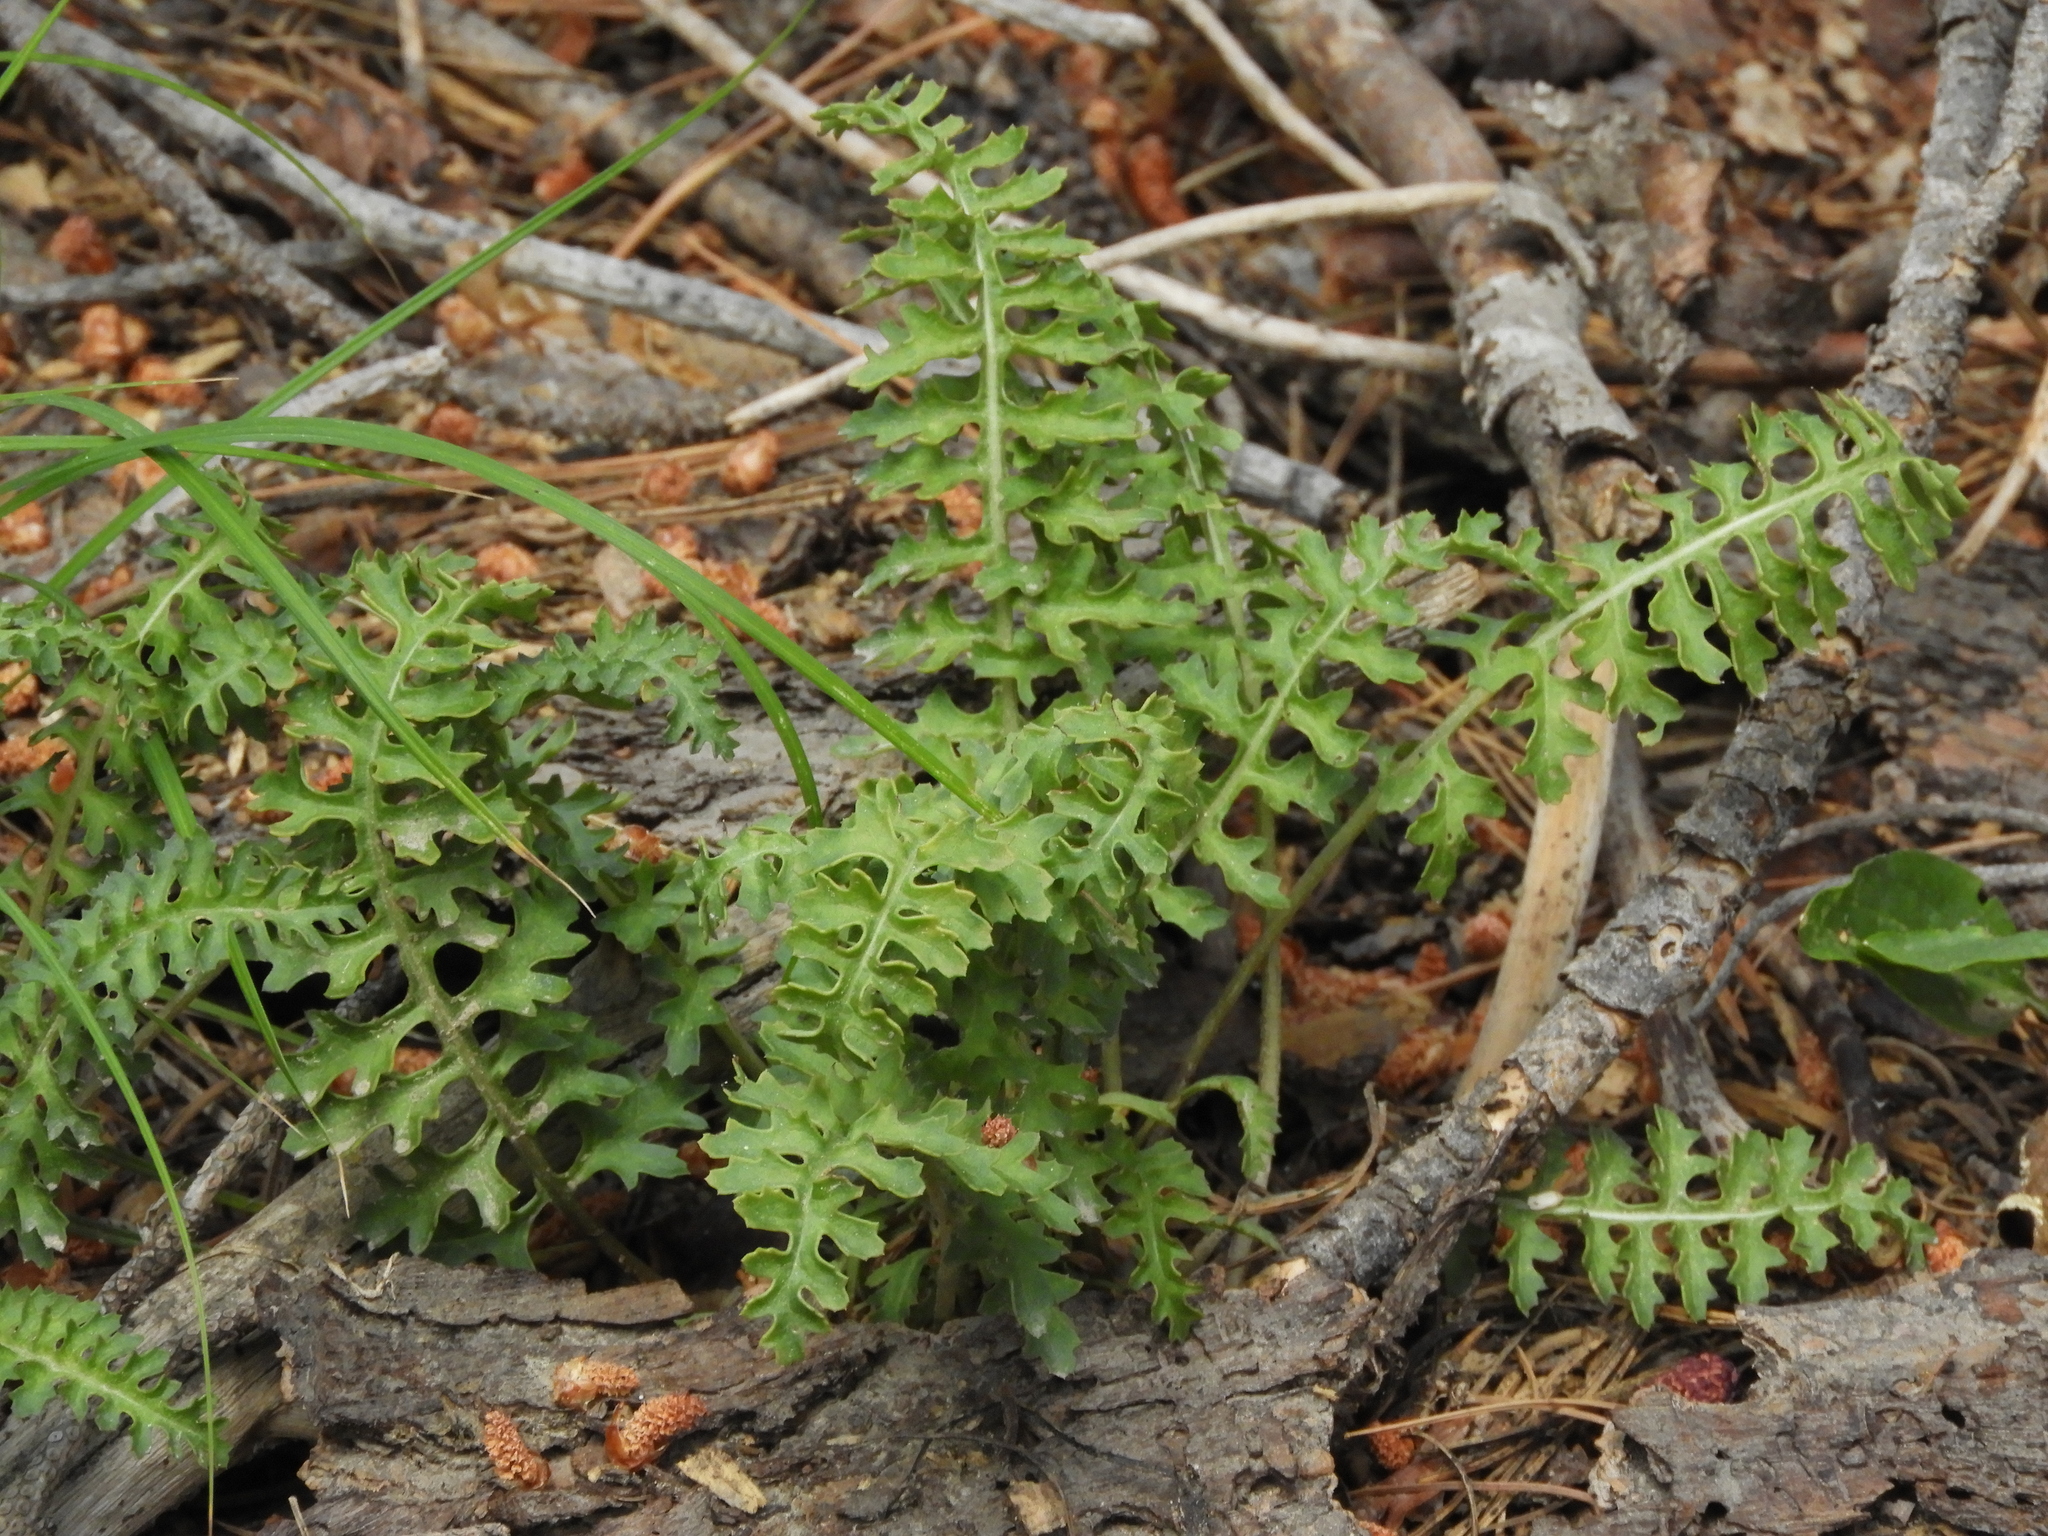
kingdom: Plantae
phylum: Tracheophyta
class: Magnoliopsida
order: Lamiales
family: Orobanchaceae
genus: Pedicularis
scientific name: Pedicularis semibarbata
